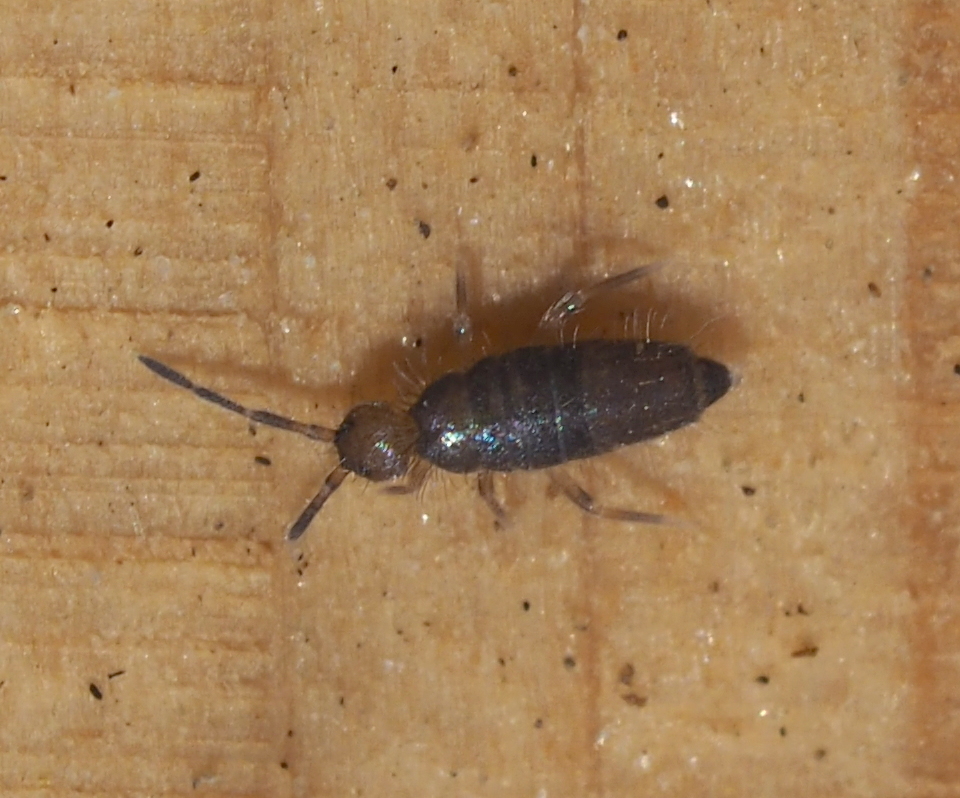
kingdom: Animalia
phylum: Arthropoda
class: Collembola
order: Entomobryomorpha
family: Entomobryidae
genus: Willowsia
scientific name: Willowsia buski
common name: Damp grain springtail
